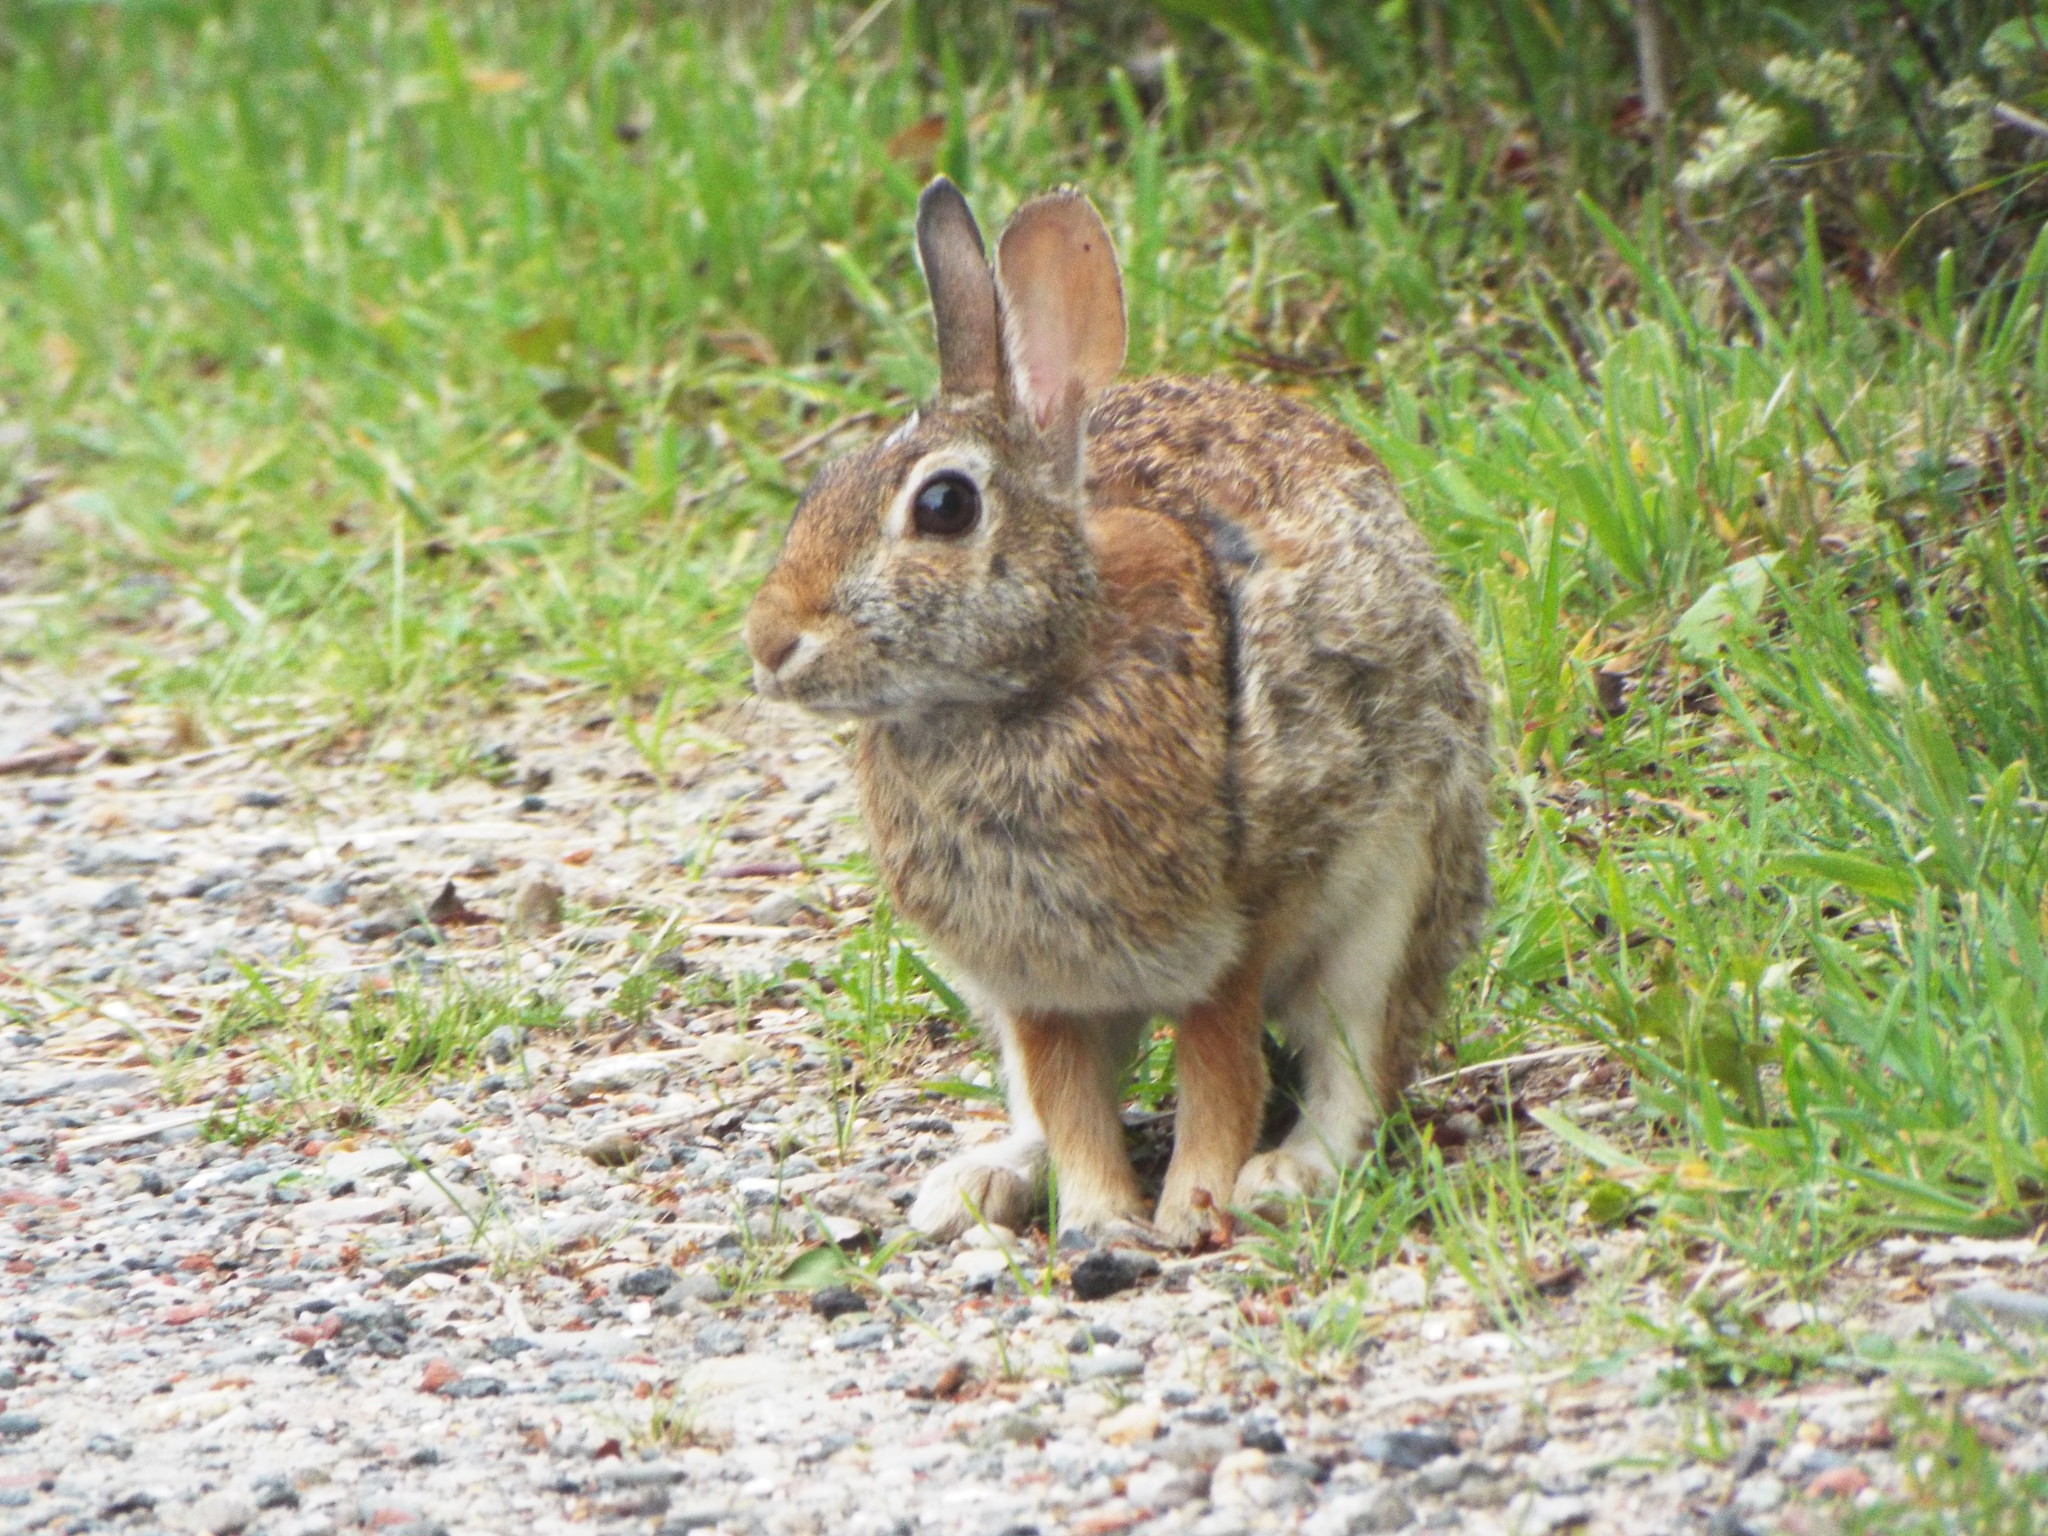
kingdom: Animalia
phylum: Chordata
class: Mammalia
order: Lagomorpha
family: Leporidae
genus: Sylvilagus
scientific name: Sylvilagus
